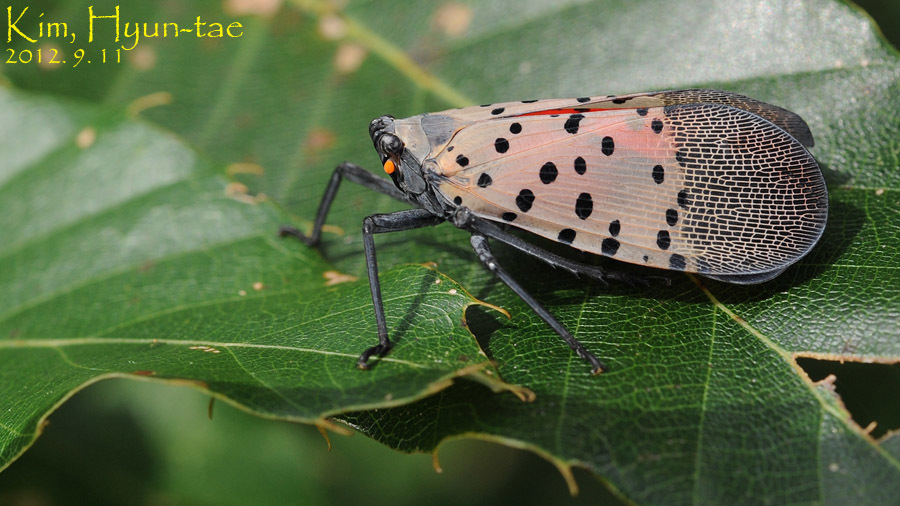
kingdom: Animalia
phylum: Arthropoda
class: Insecta
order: Hemiptera
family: Fulgoridae
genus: Lycorma
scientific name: Lycorma delicatula
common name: Spotted lanternfly
